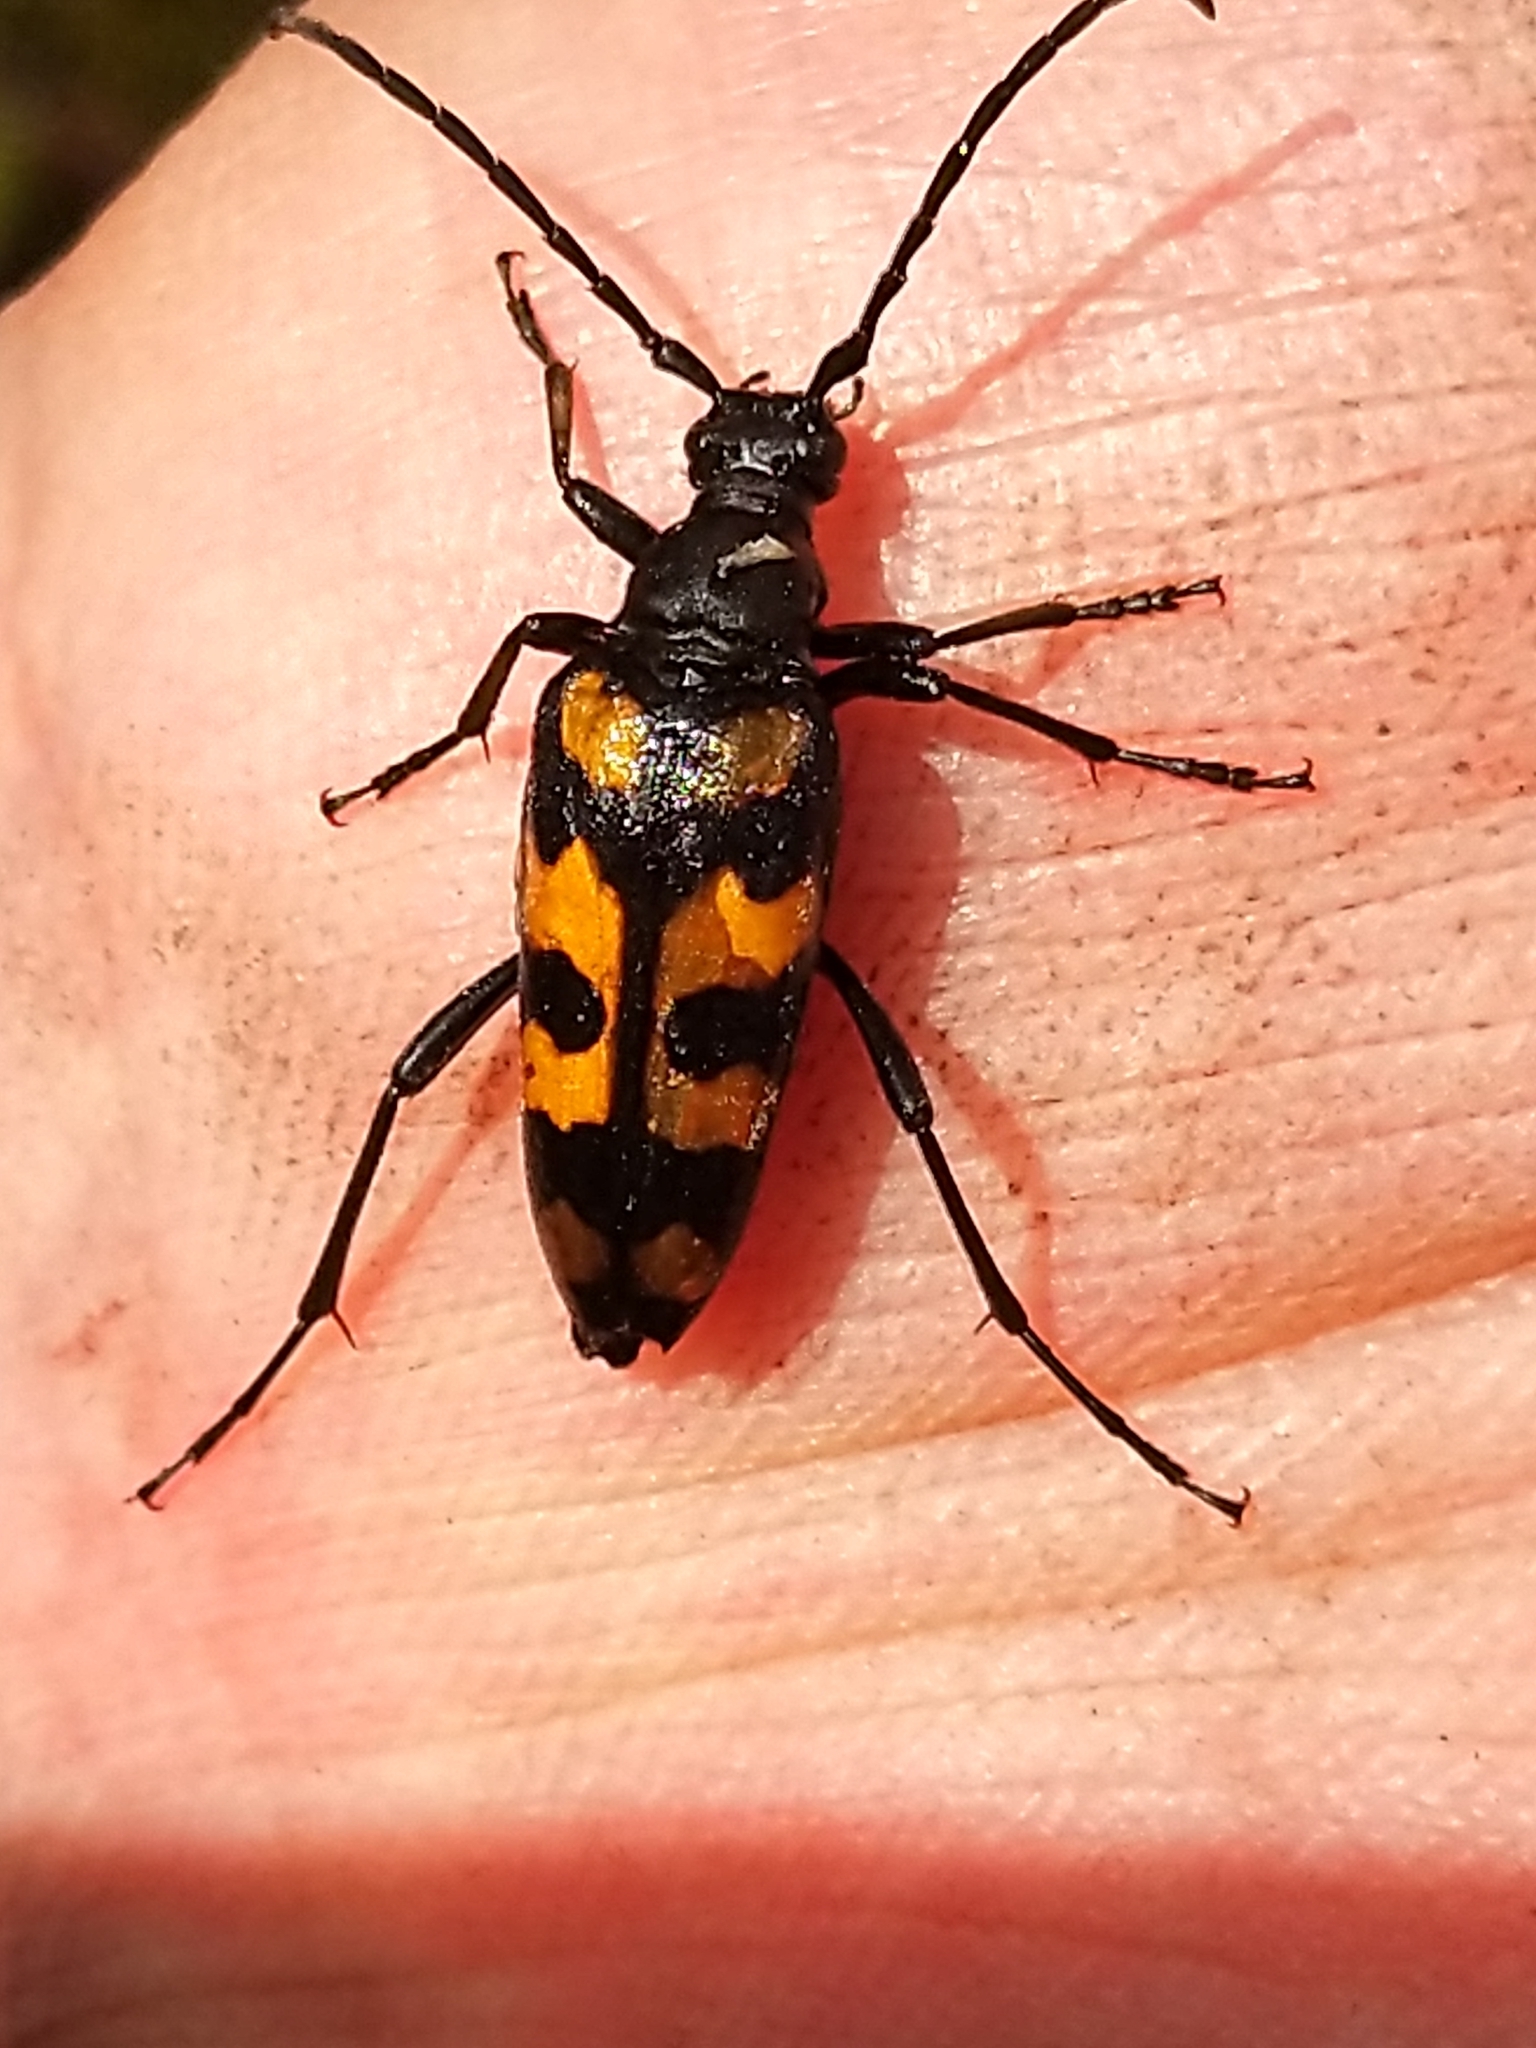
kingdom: Animalia
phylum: Arthropoda
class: Insecta
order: Coleoptera
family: Cerambycidae
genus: Leptura
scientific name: Leptura quadrifasciata
